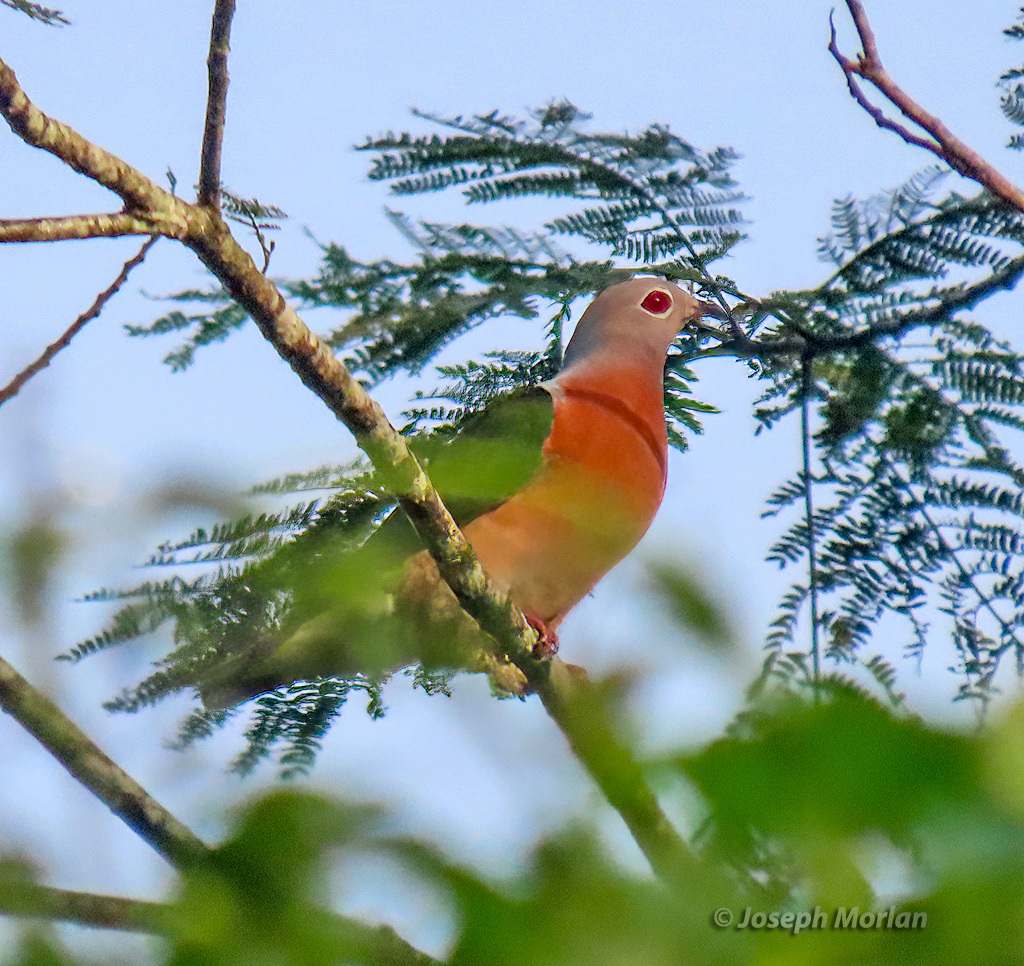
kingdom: Animalia
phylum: Chordata
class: Aves
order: Columbiformes
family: Columbidae
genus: Ducula
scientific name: Ducula rufigaster
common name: Purple-tailed imperial pigeon
